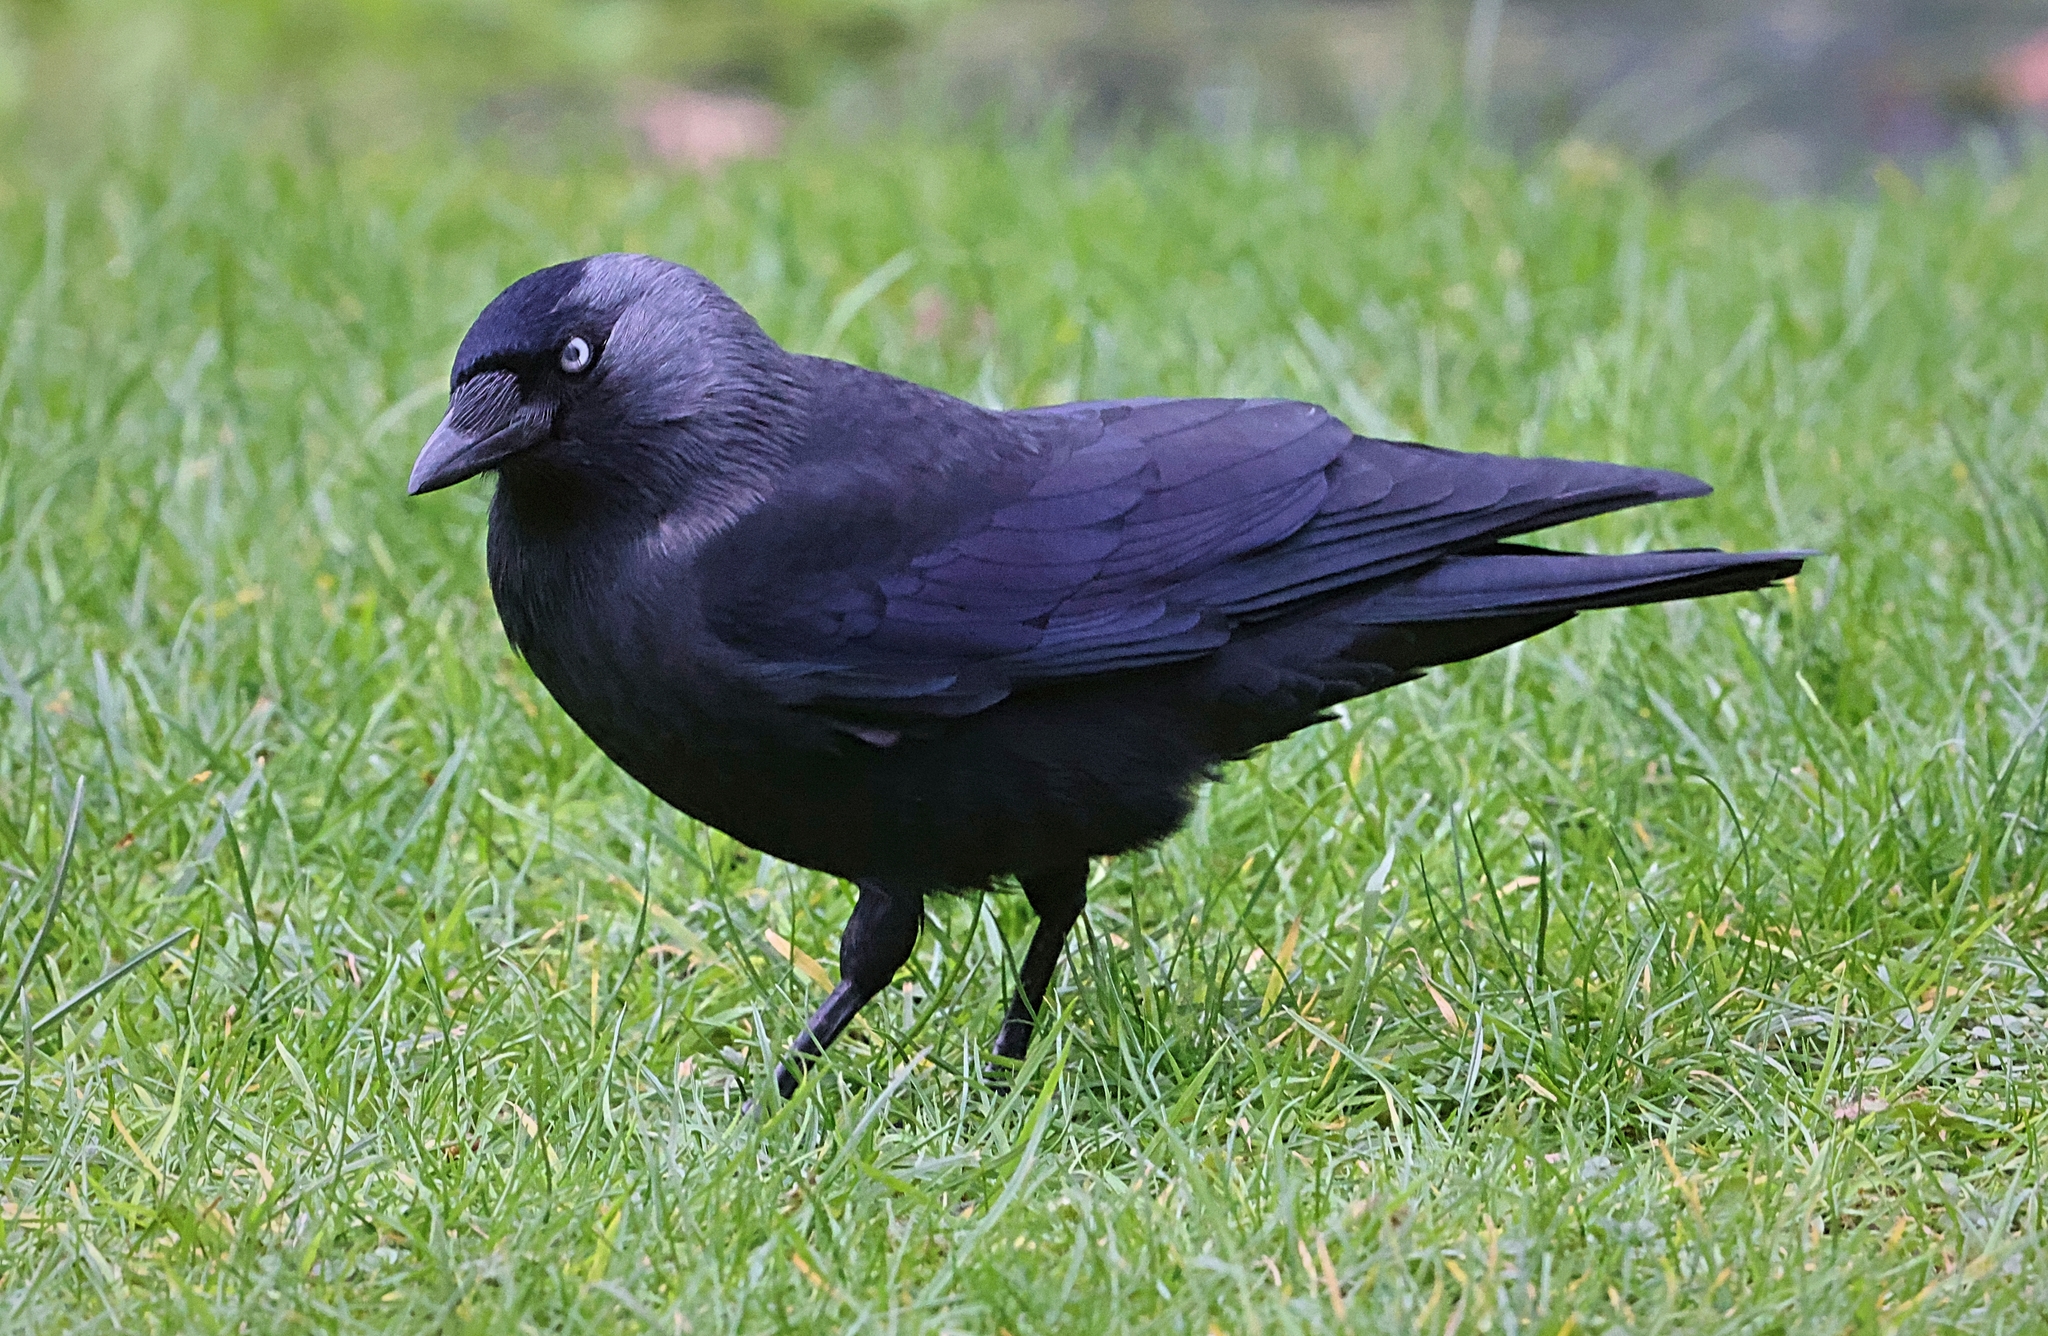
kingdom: Animalia
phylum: Chordata
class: Aves
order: Passeriformes
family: Corvidae
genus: Coloeus
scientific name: Coloeus monedula
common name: Western jackdaw
